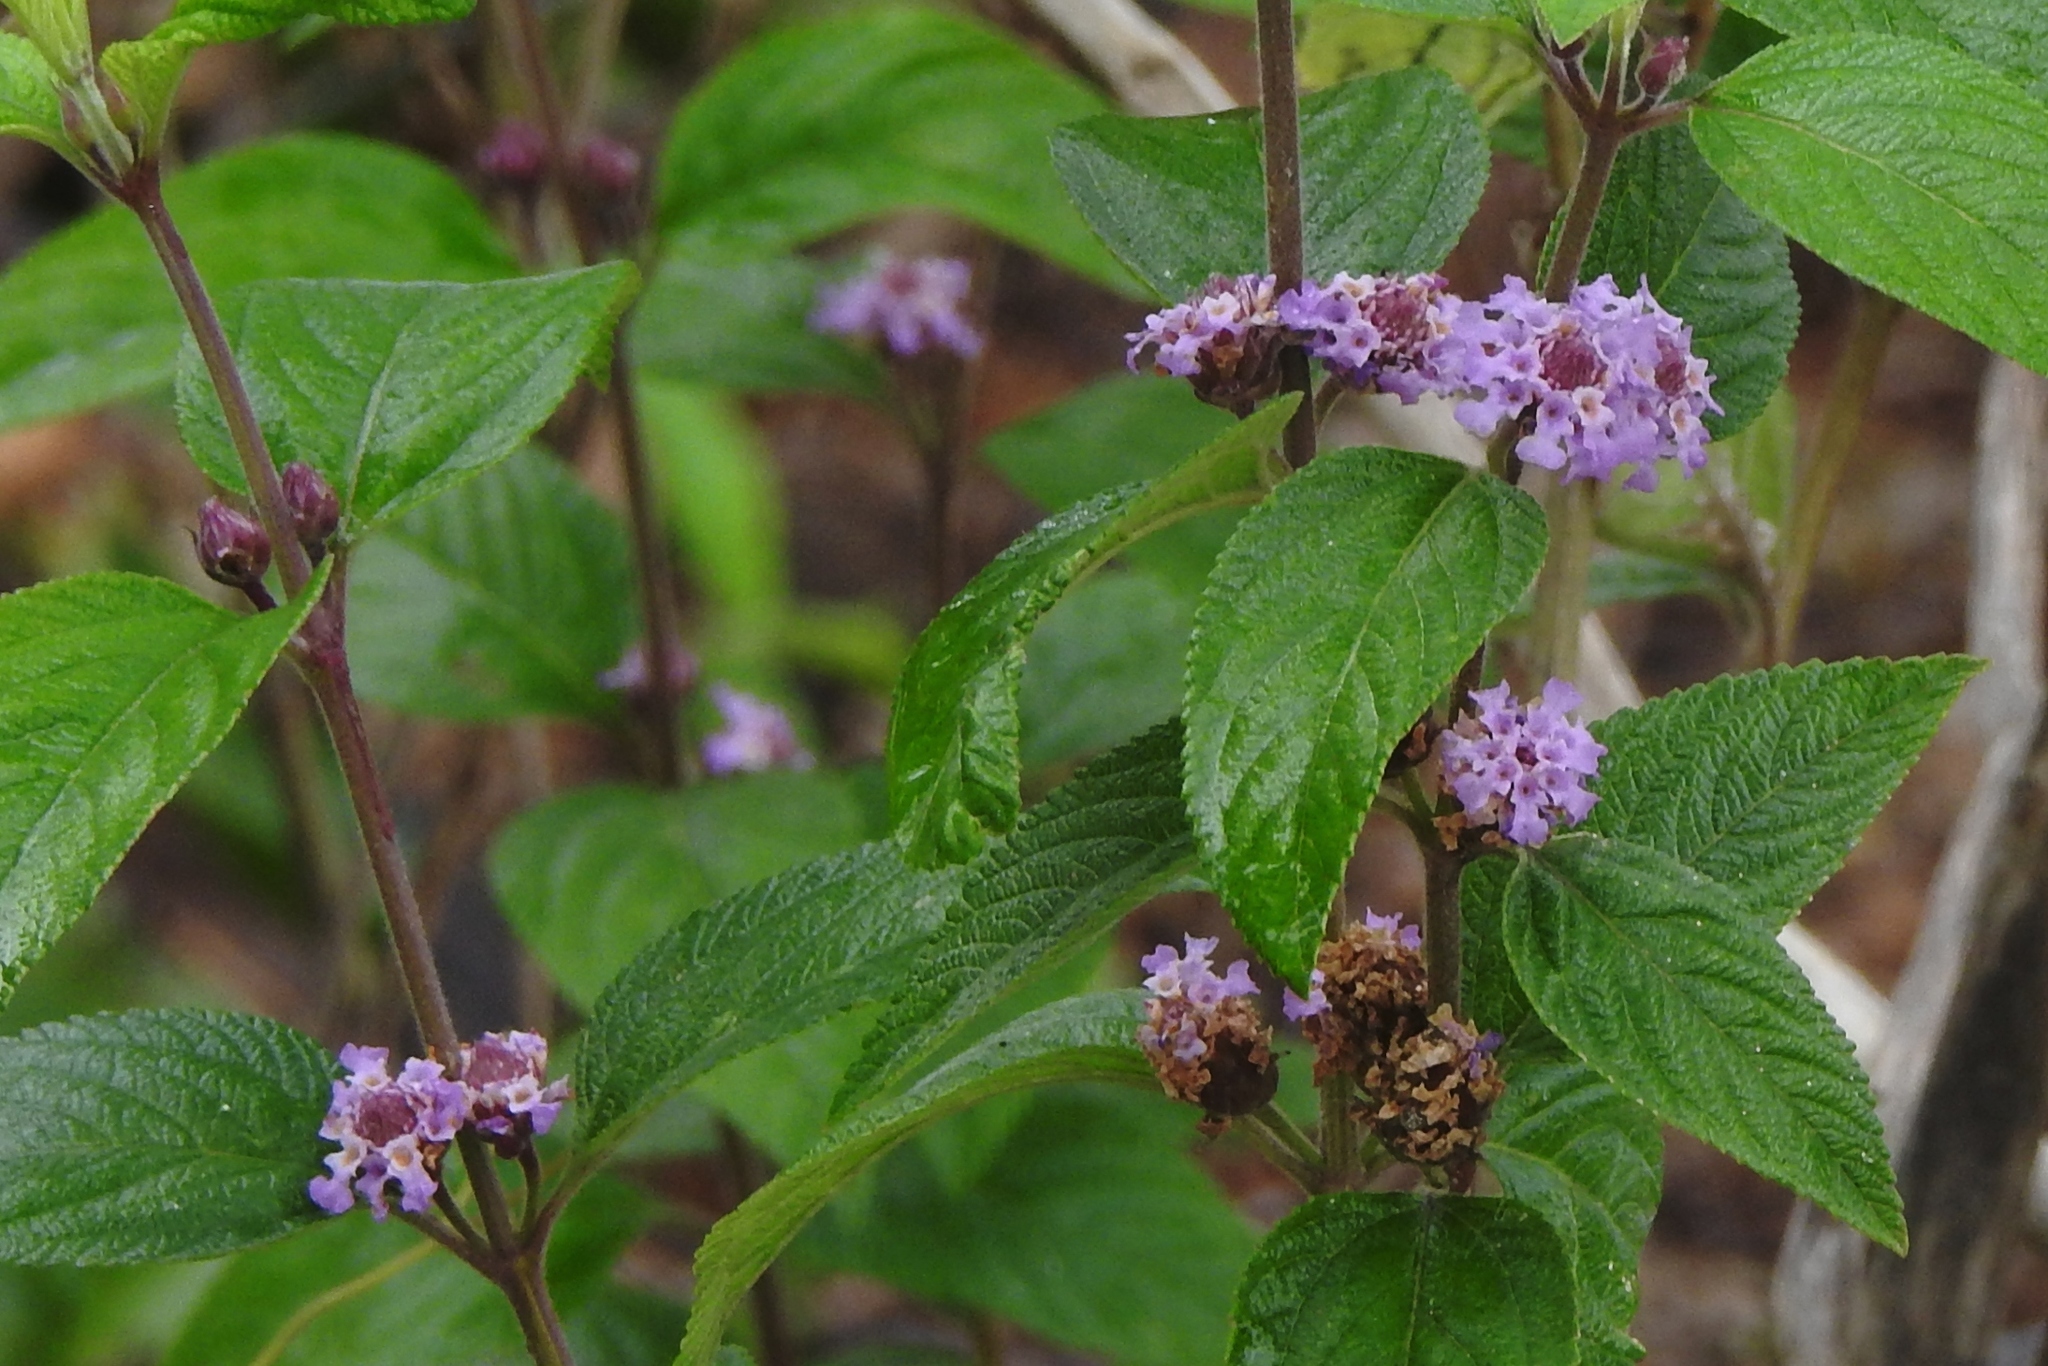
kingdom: Plantae
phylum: Tracheophyta
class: Magnoliopsida
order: Lamiales
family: Verbenaceae
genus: Lippia
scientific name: Lippia alba
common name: Bushy matgrass
